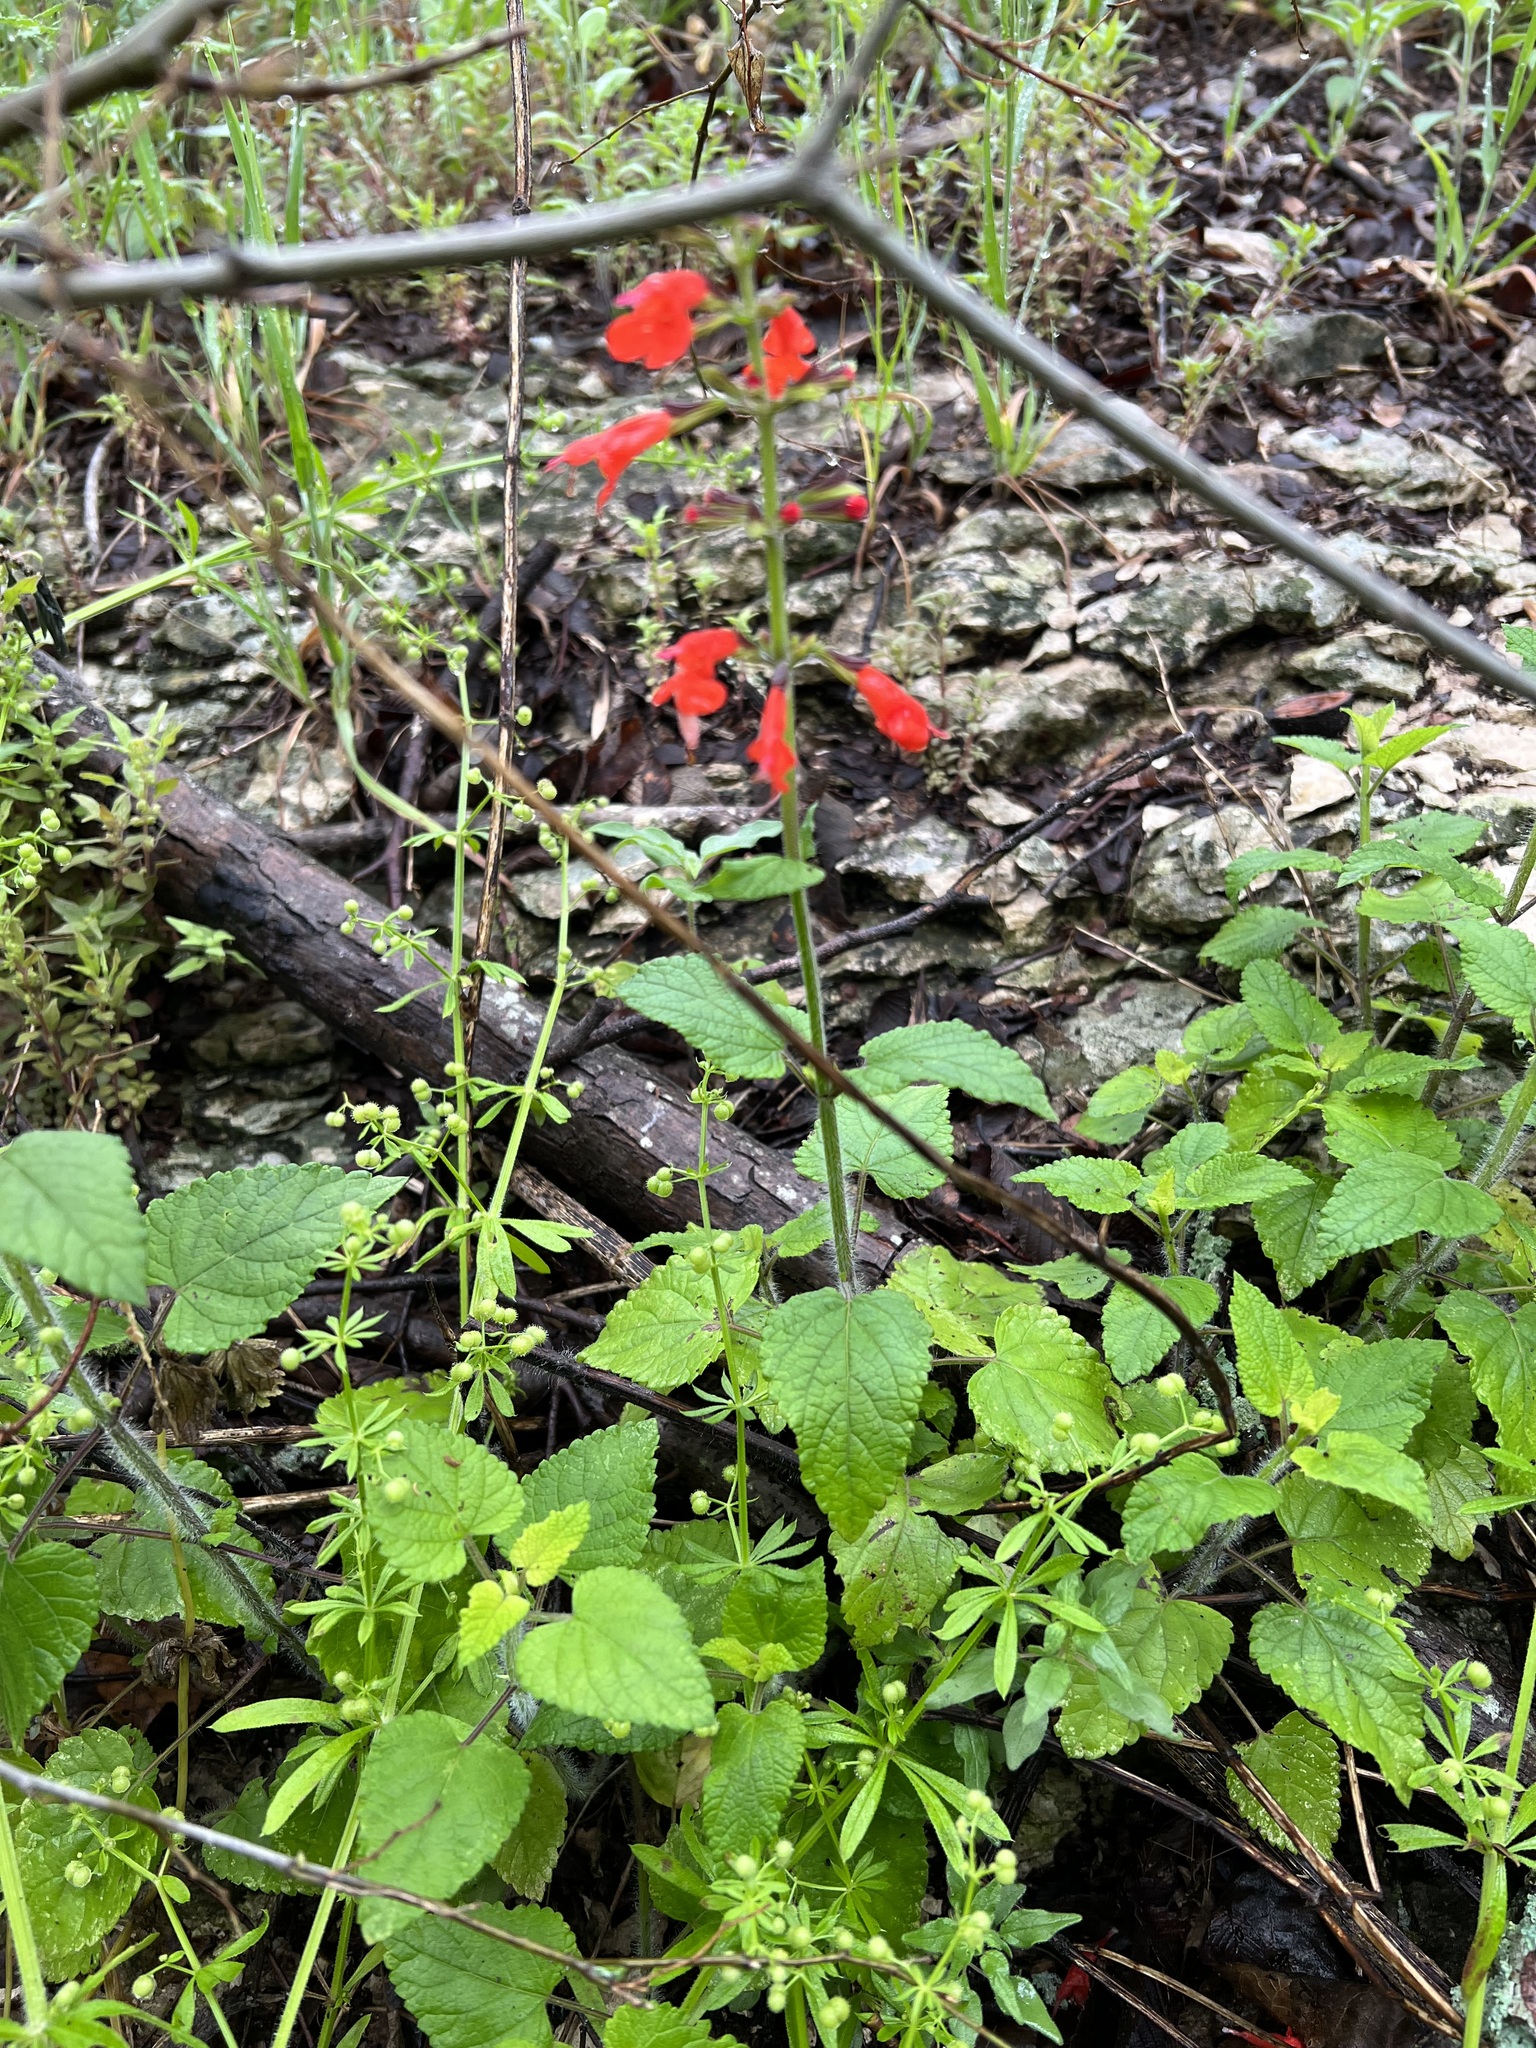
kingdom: Plantae
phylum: Tracheophyta
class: Magnoliopsida
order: Lamiales
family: Lamiaceae
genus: Salvia
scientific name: Salvia coccinea
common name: Blood sage
